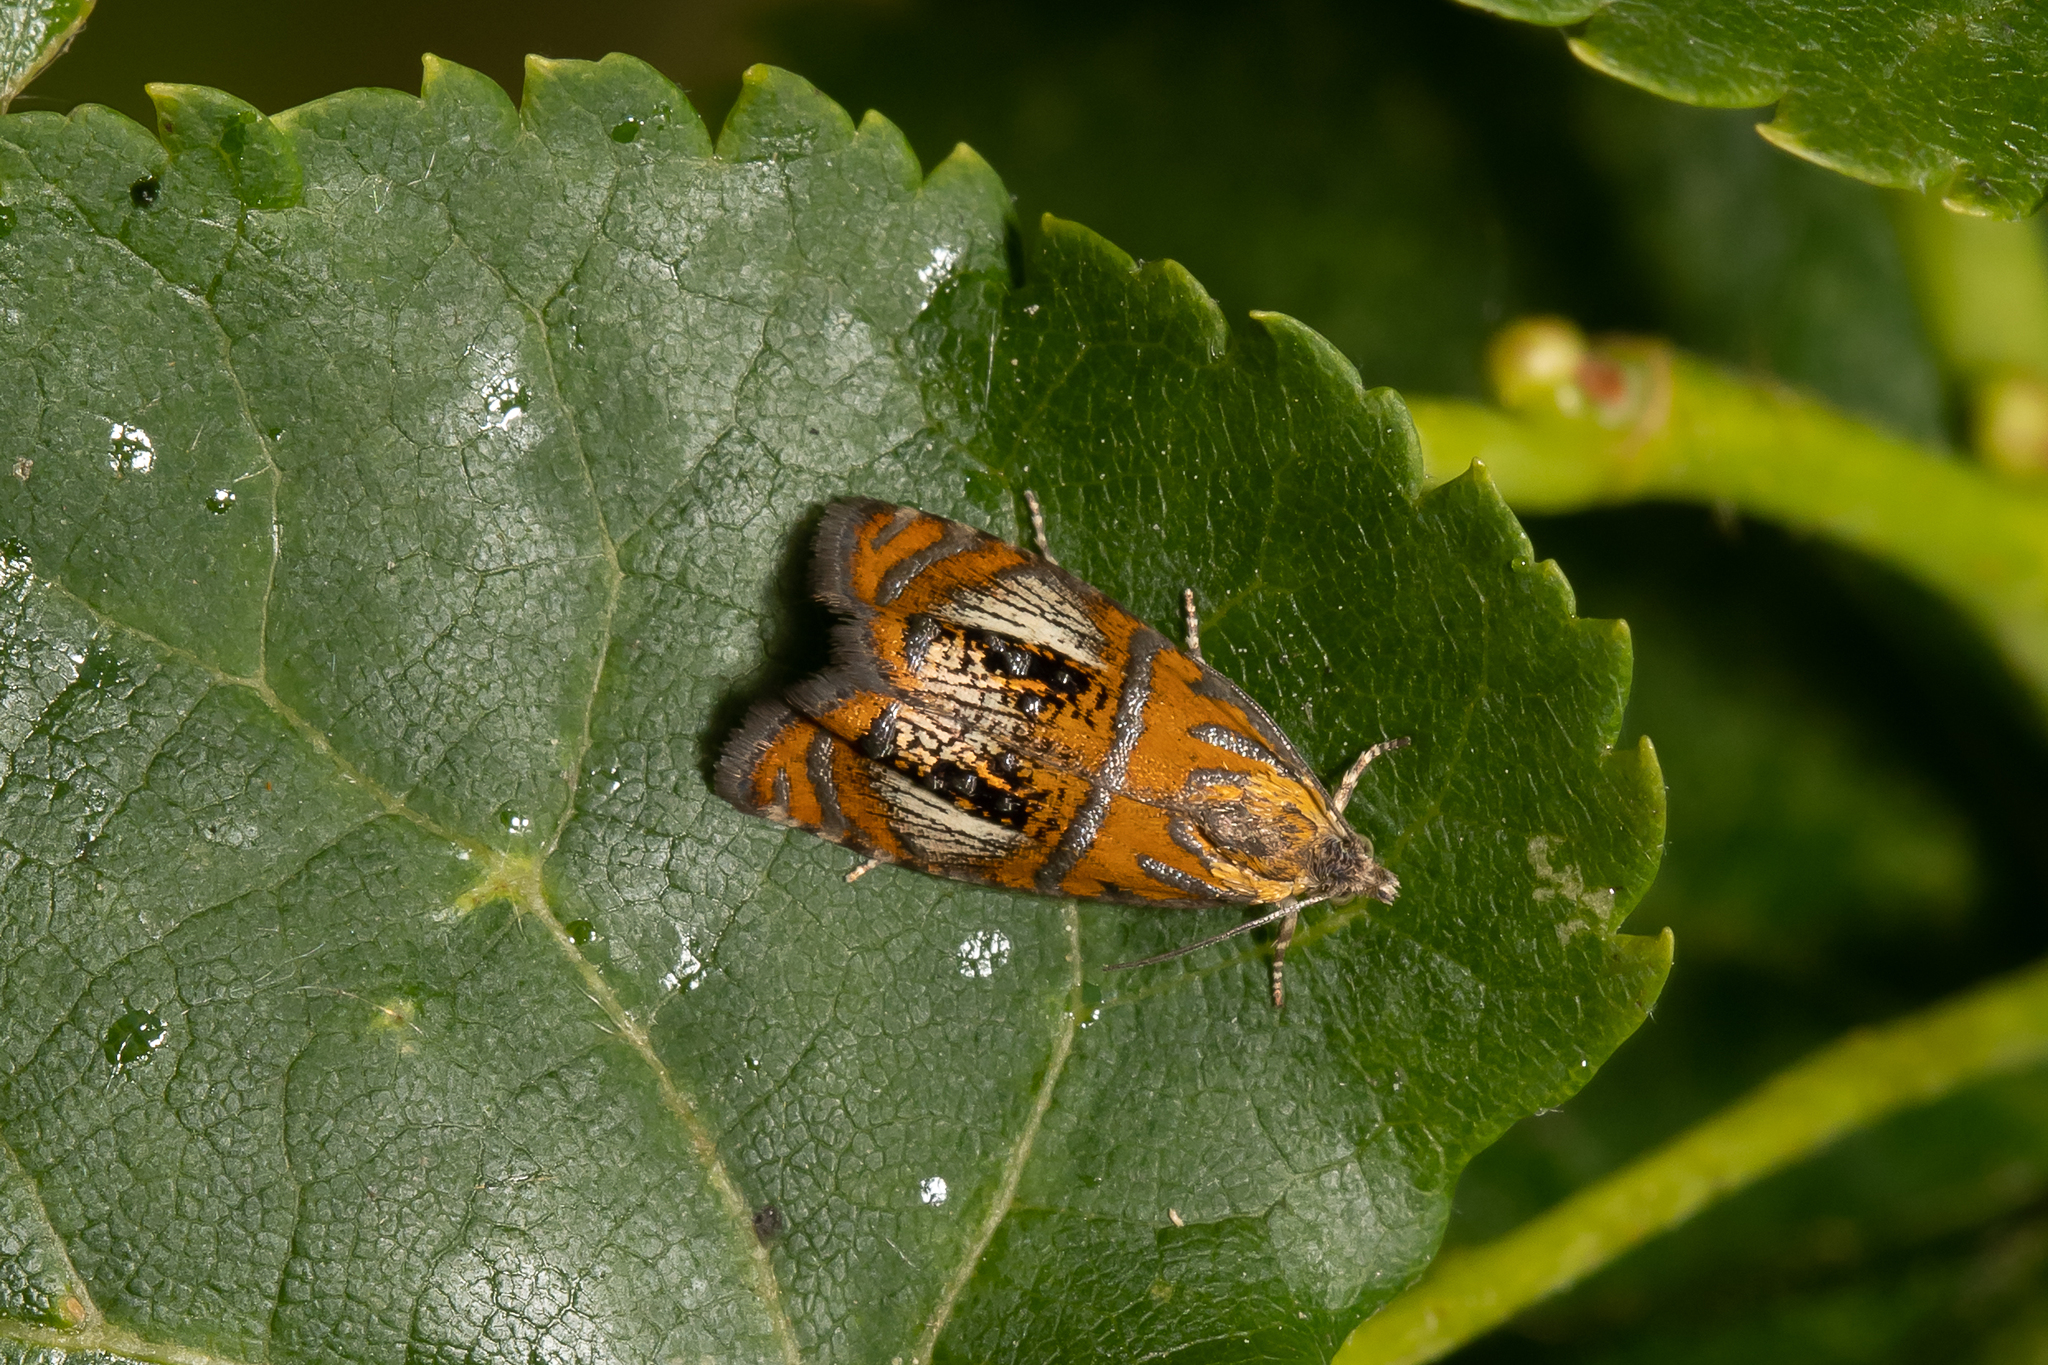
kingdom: Animalia
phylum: Arthropoda
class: Insecta
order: Lepidoptera
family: Tortricidae
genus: Olethreutes
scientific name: Olethreutes arcuella
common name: Arched marble
